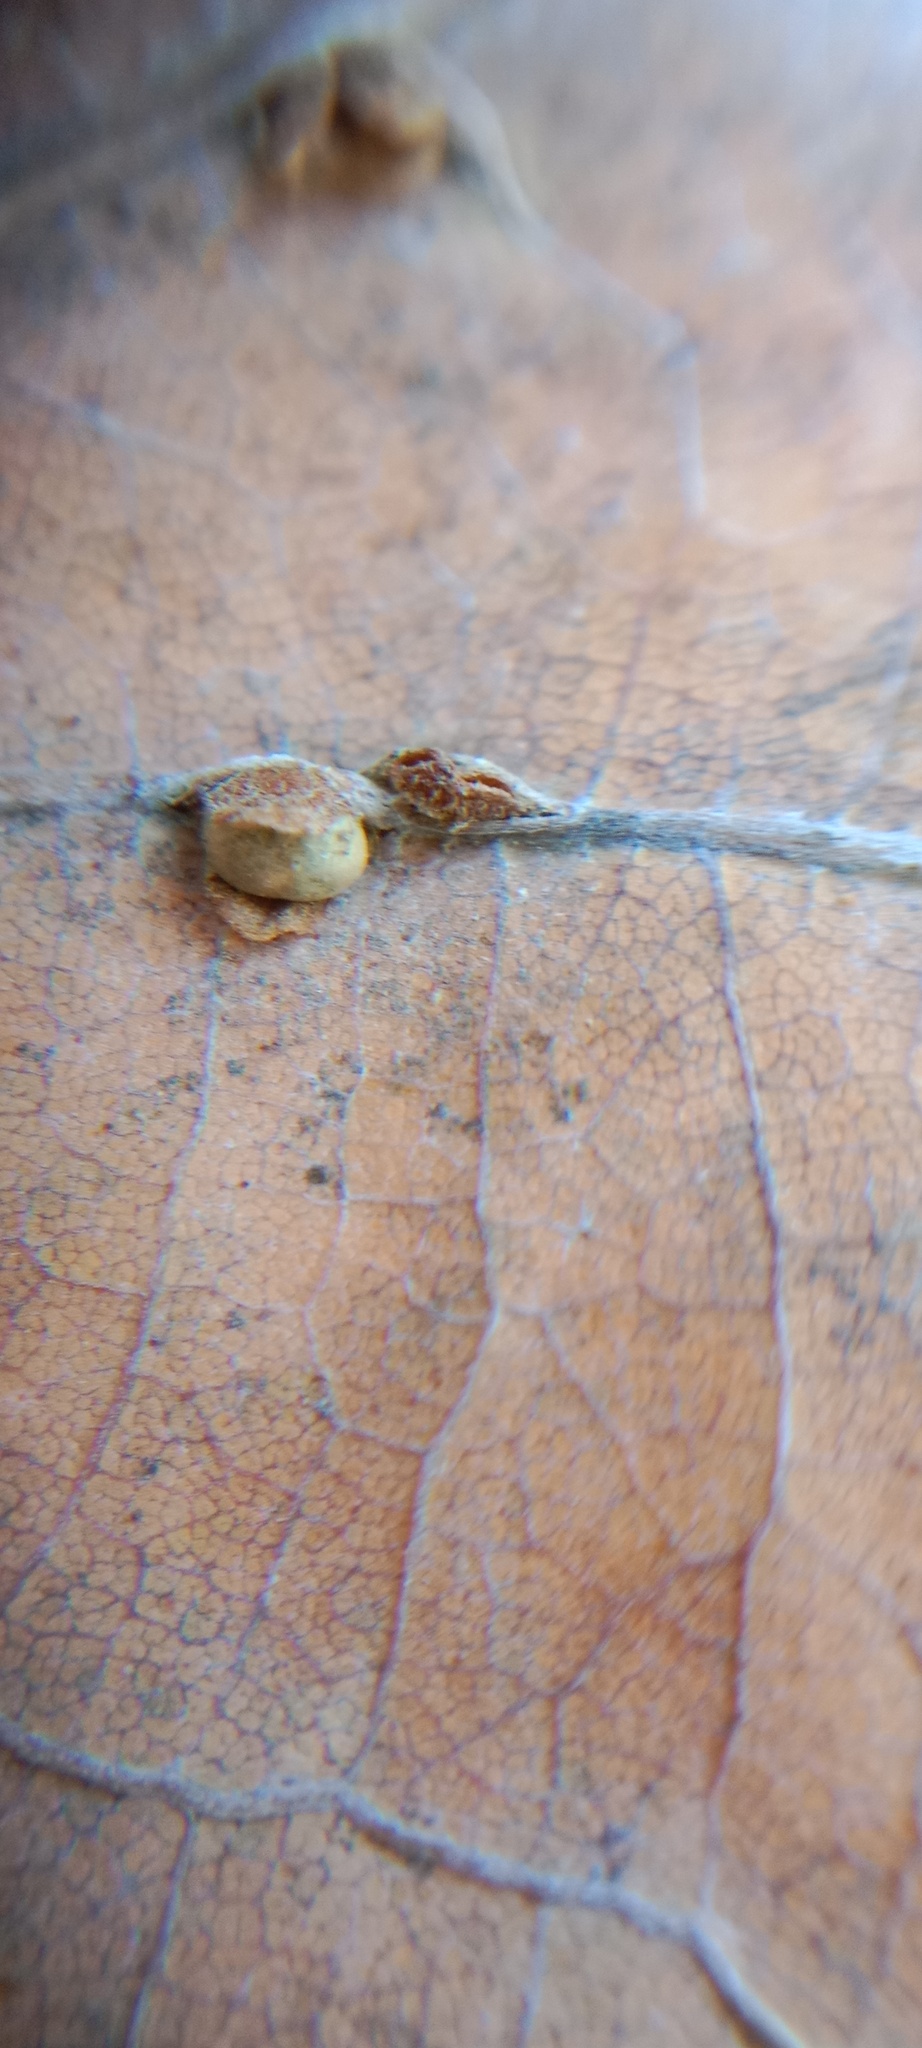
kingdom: Animalia
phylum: Arthropoda
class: Insecta
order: Hymenoptera
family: Cynipidae
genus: Neuroterus
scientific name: Neuroterus anthracinus
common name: Oyster gall
